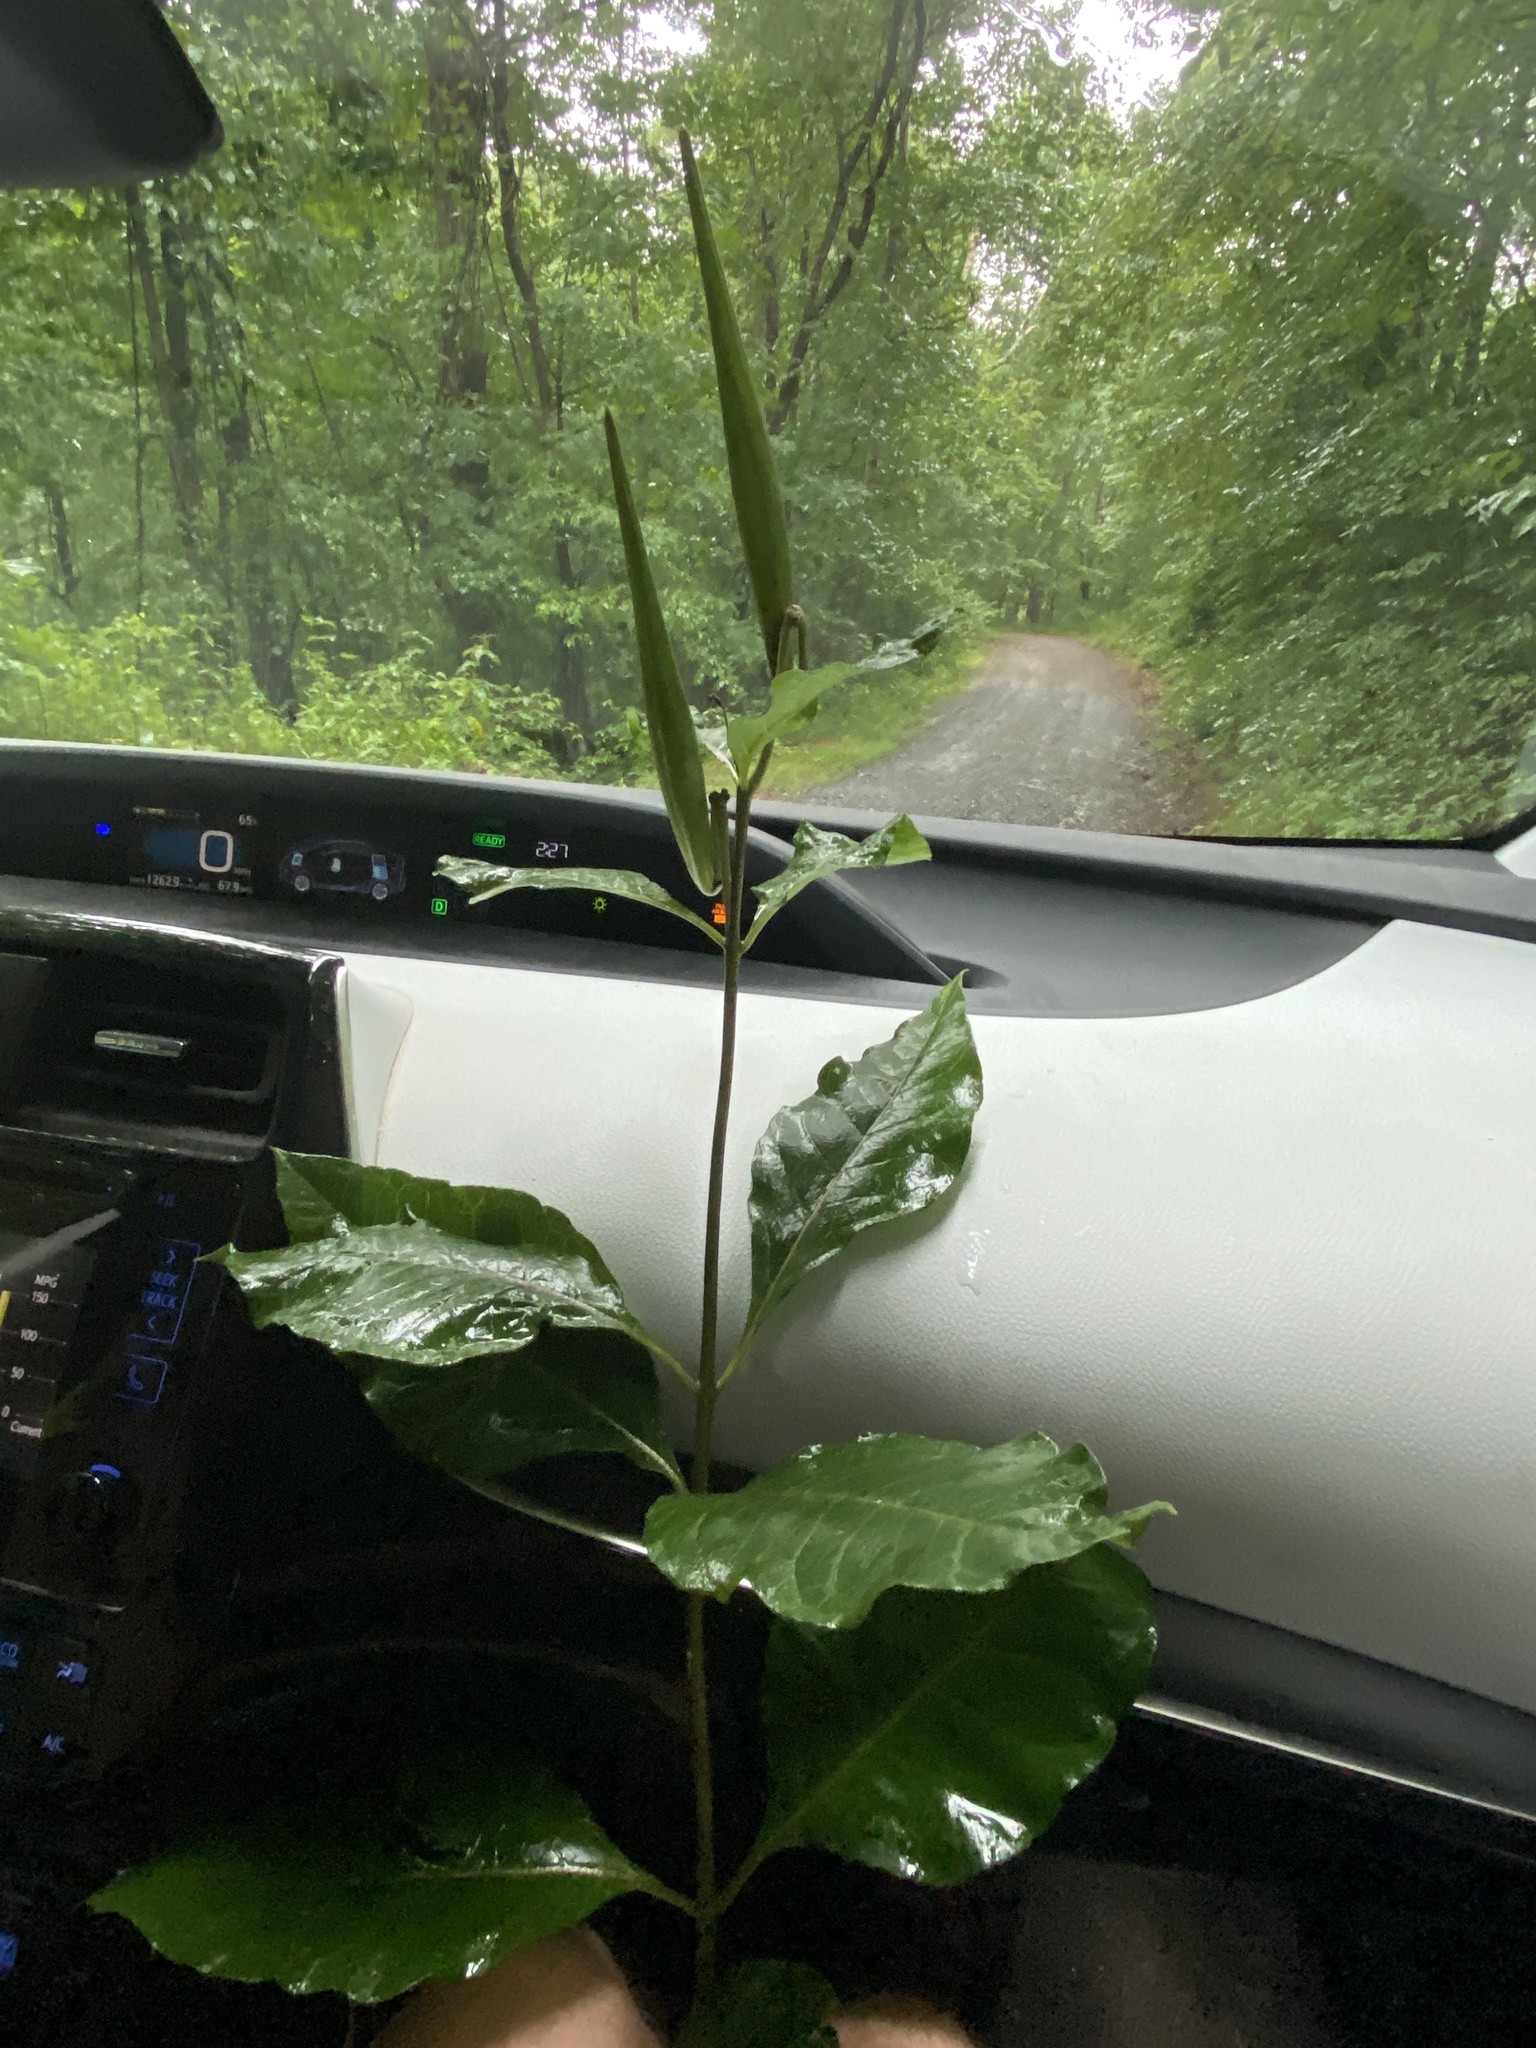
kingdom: Plantae
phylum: Tracheophyta
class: Magnoliopsida
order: Gentianales
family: Apocynaceae
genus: Asclepias
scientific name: Asclepias exaltata
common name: Poke milkweed
